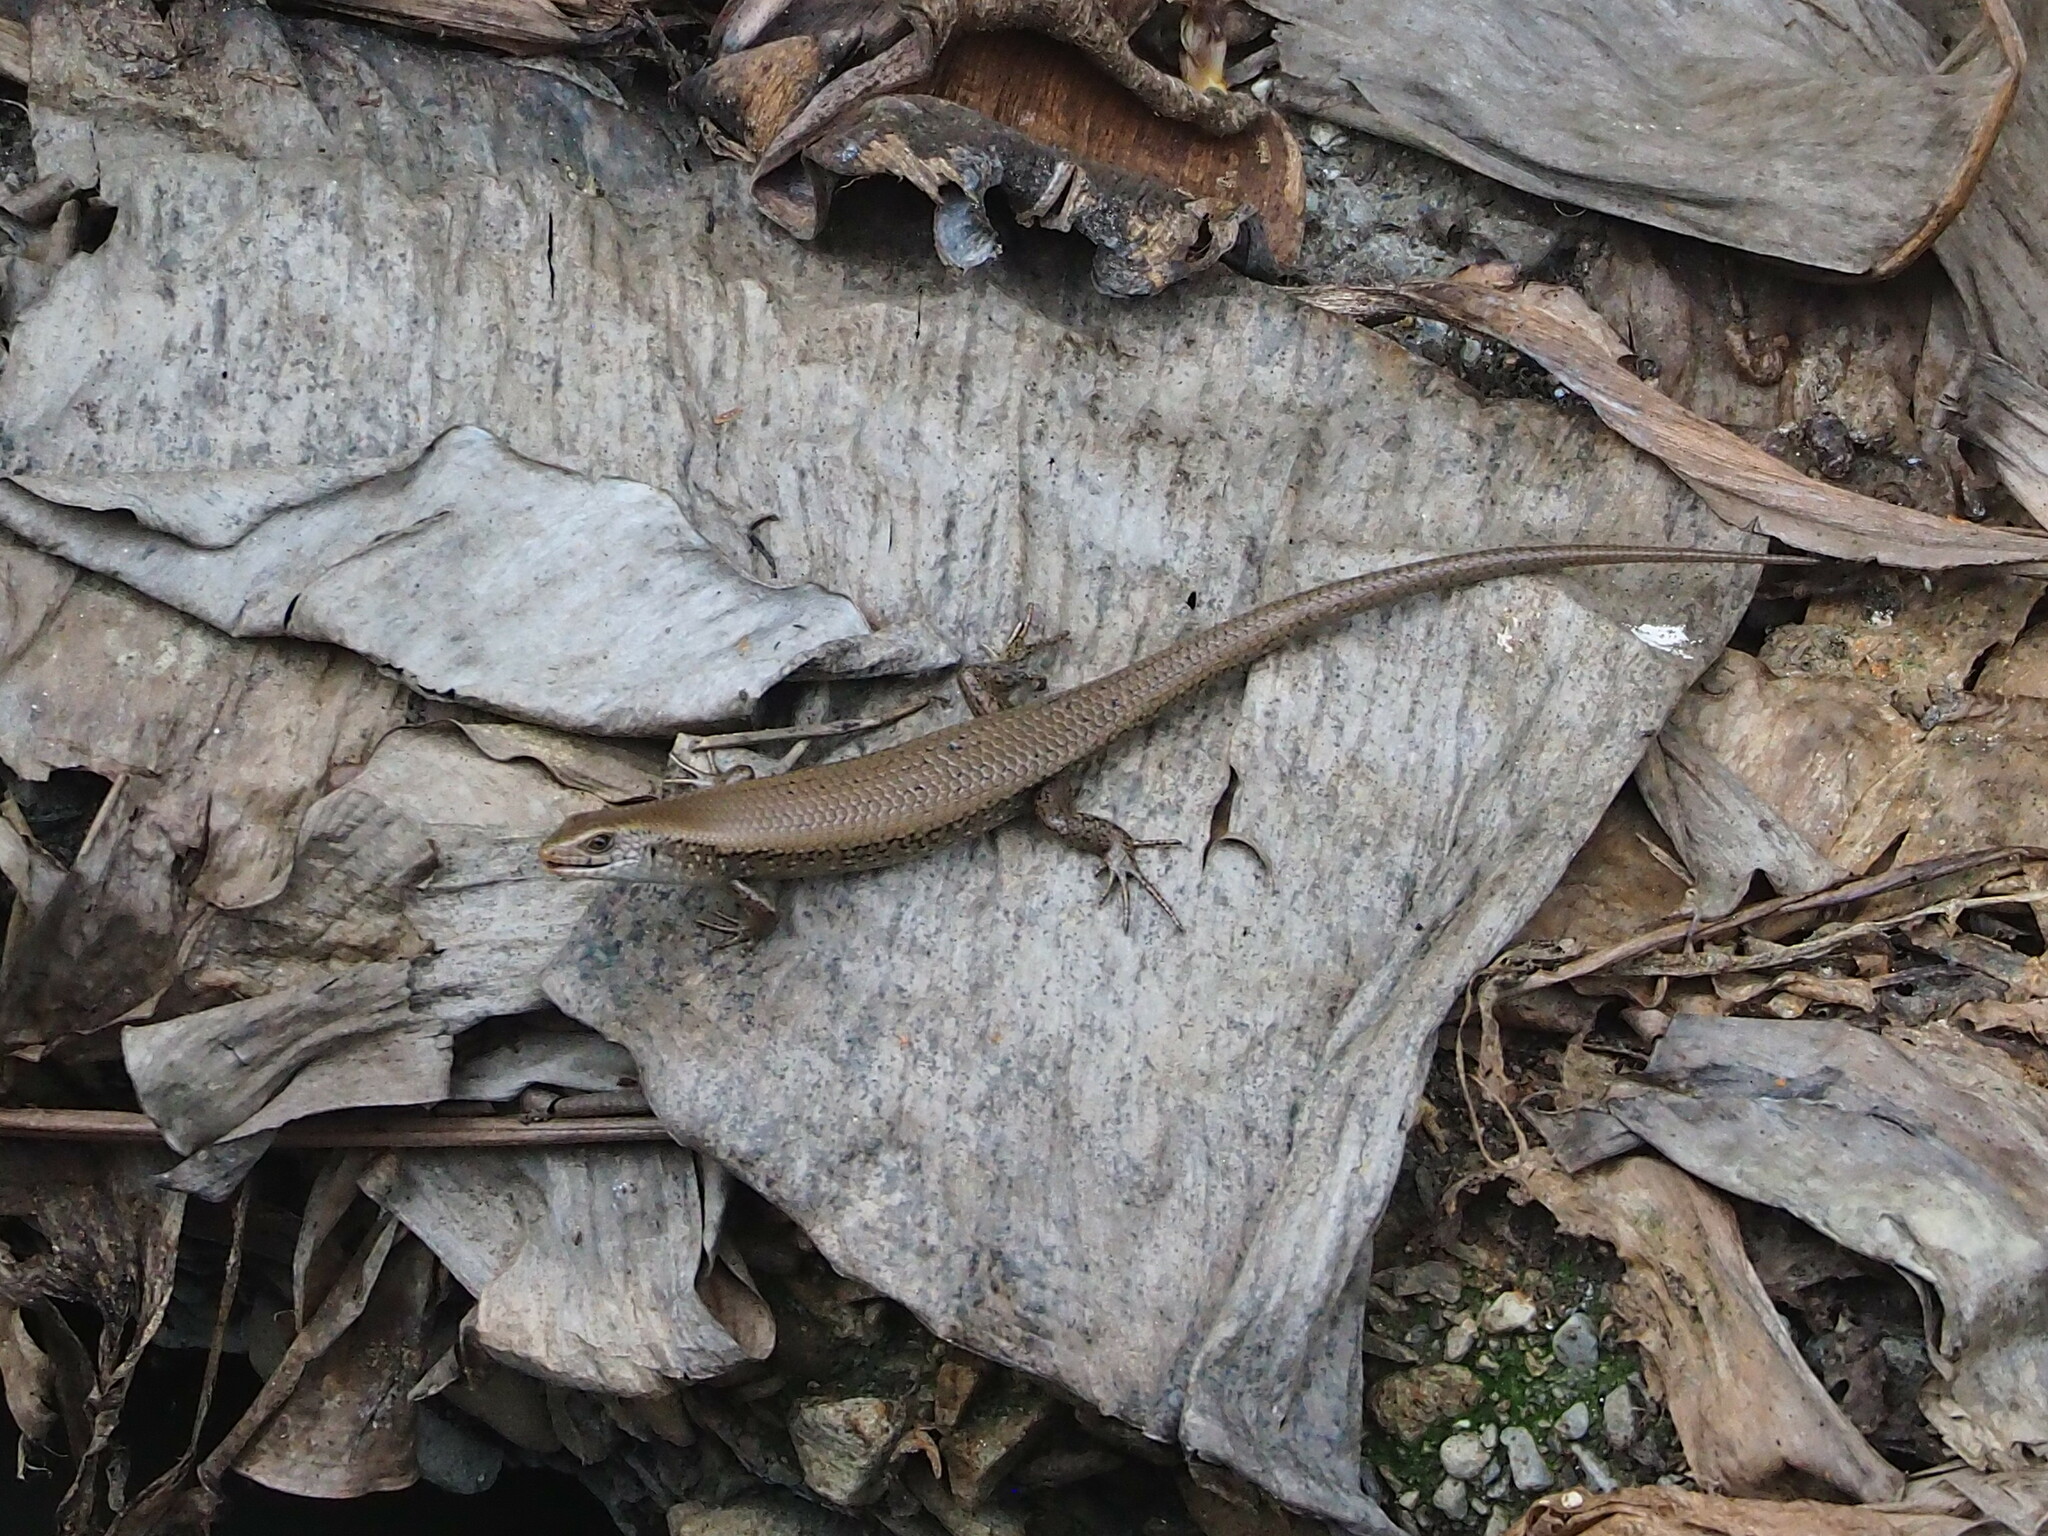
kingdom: Animalia
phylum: Chordata
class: Squamata
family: Scincidae
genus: Eutropis
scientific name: Eutropis multifasciata
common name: Common mabuya
